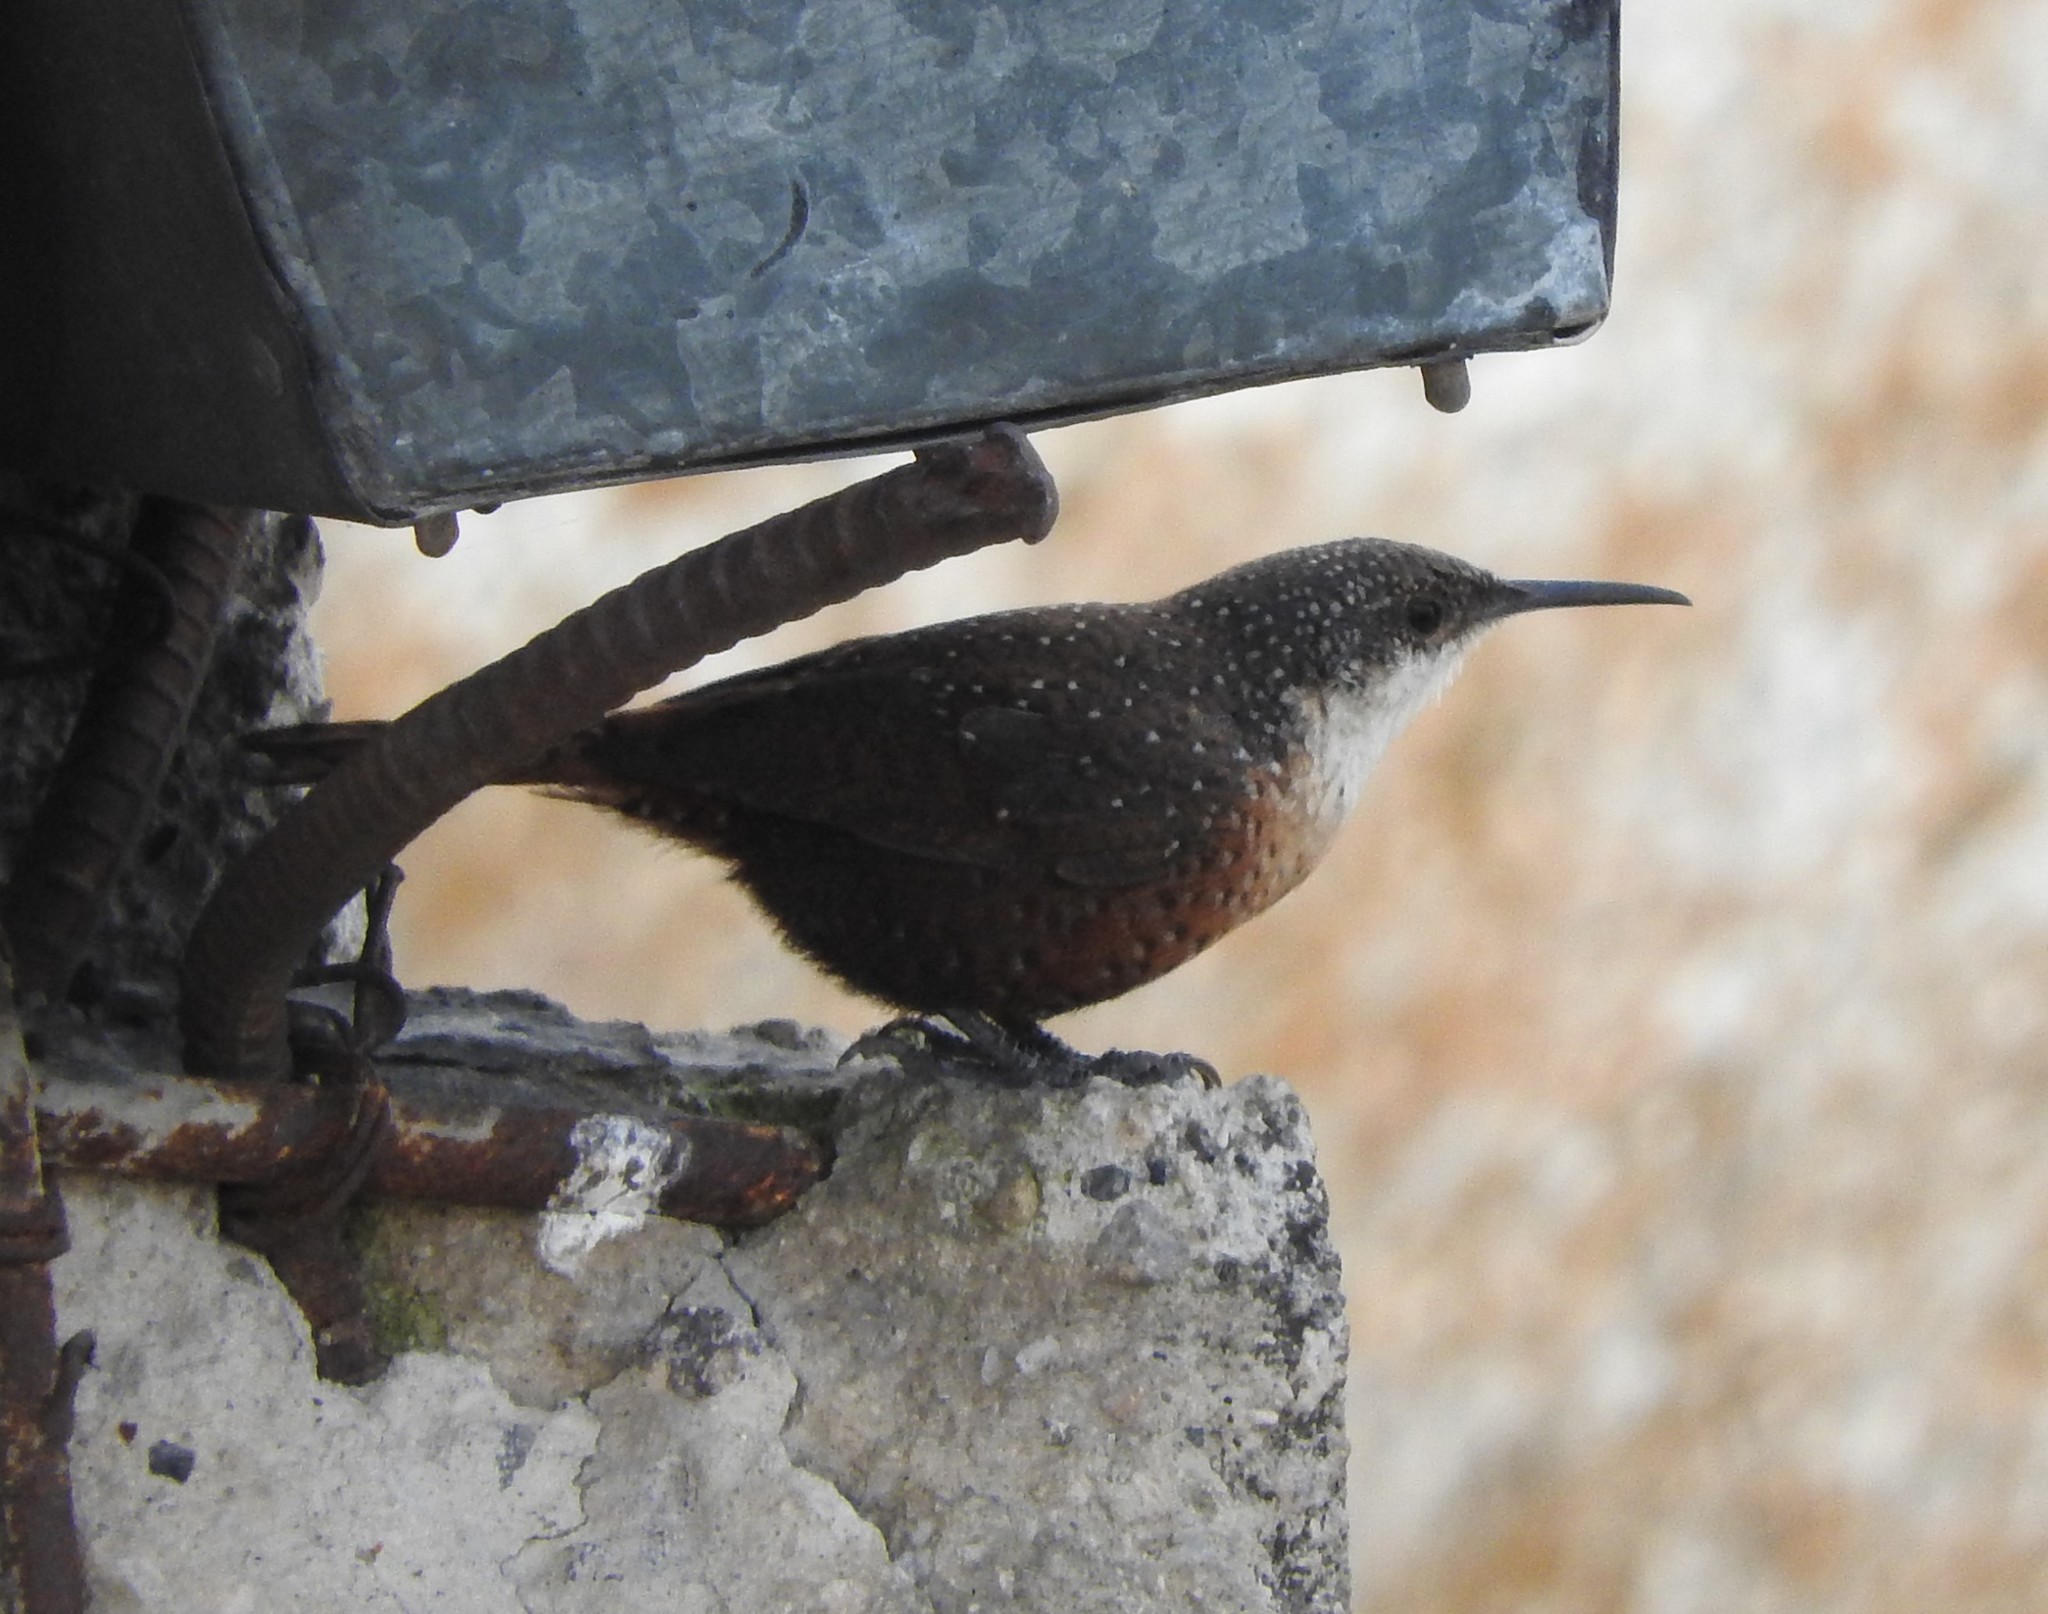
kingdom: Animalia
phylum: Chordata
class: Aves
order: Passeriformes
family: Troglodytidae
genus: Catherpes
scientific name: Catherpes mexicanus
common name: Canyon wren
